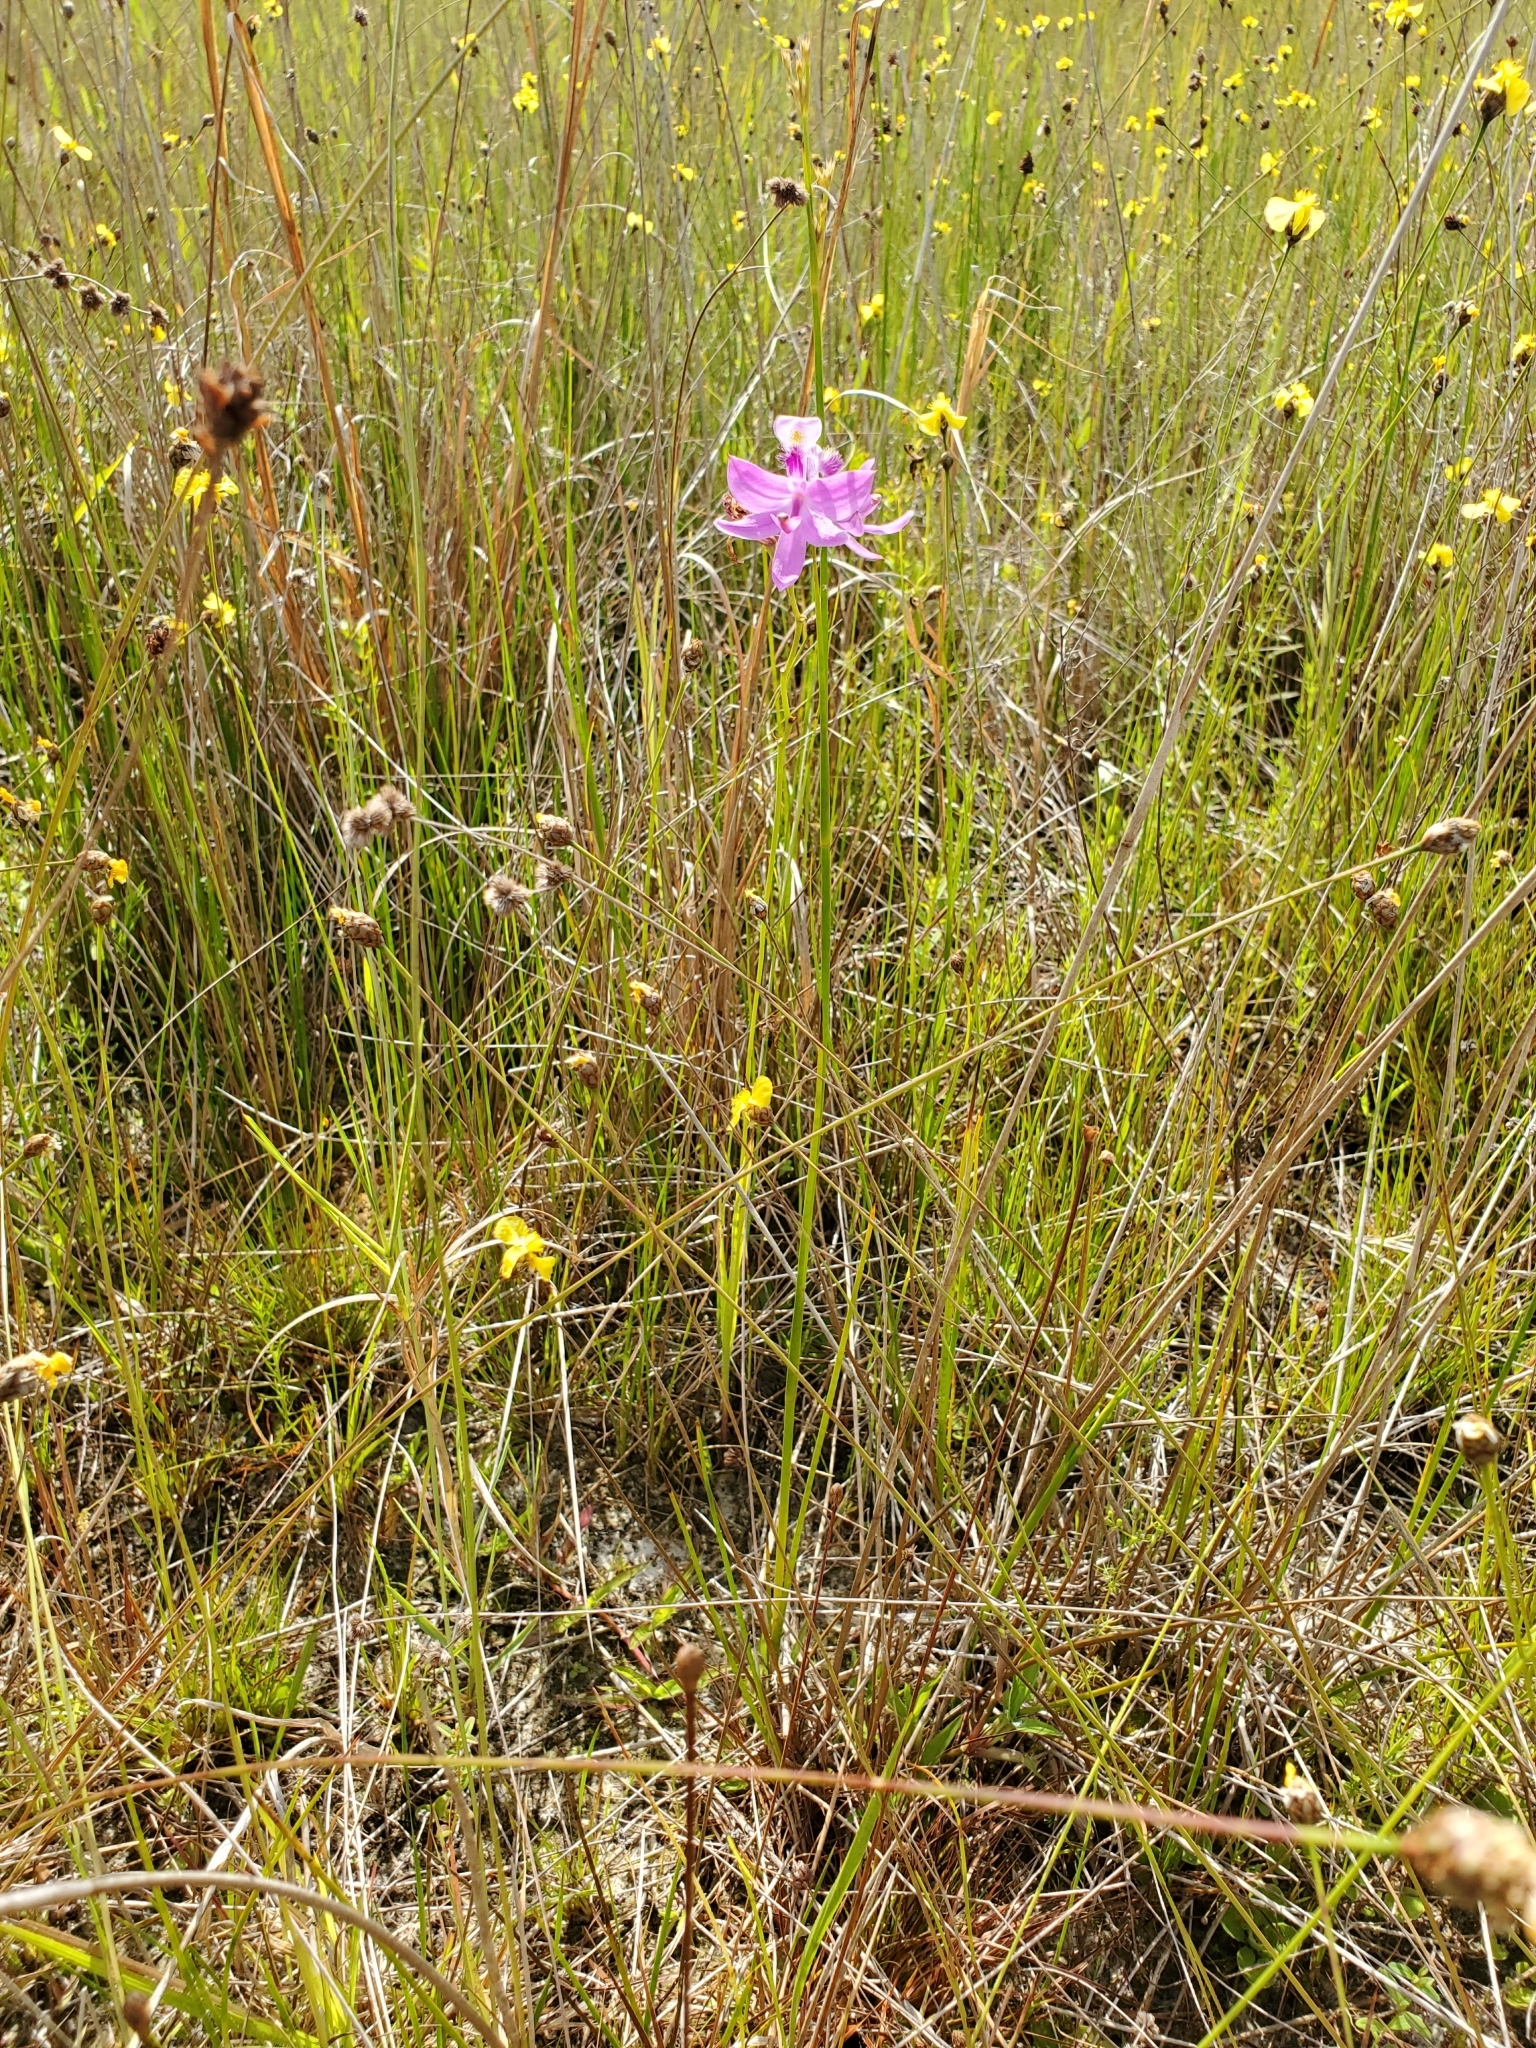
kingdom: Plantae
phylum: Tracheophyta
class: Liliopsida
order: Asparagales
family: Orchidaceae
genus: Calopogon
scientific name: Calopogon tuberosus
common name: Grass-pink
